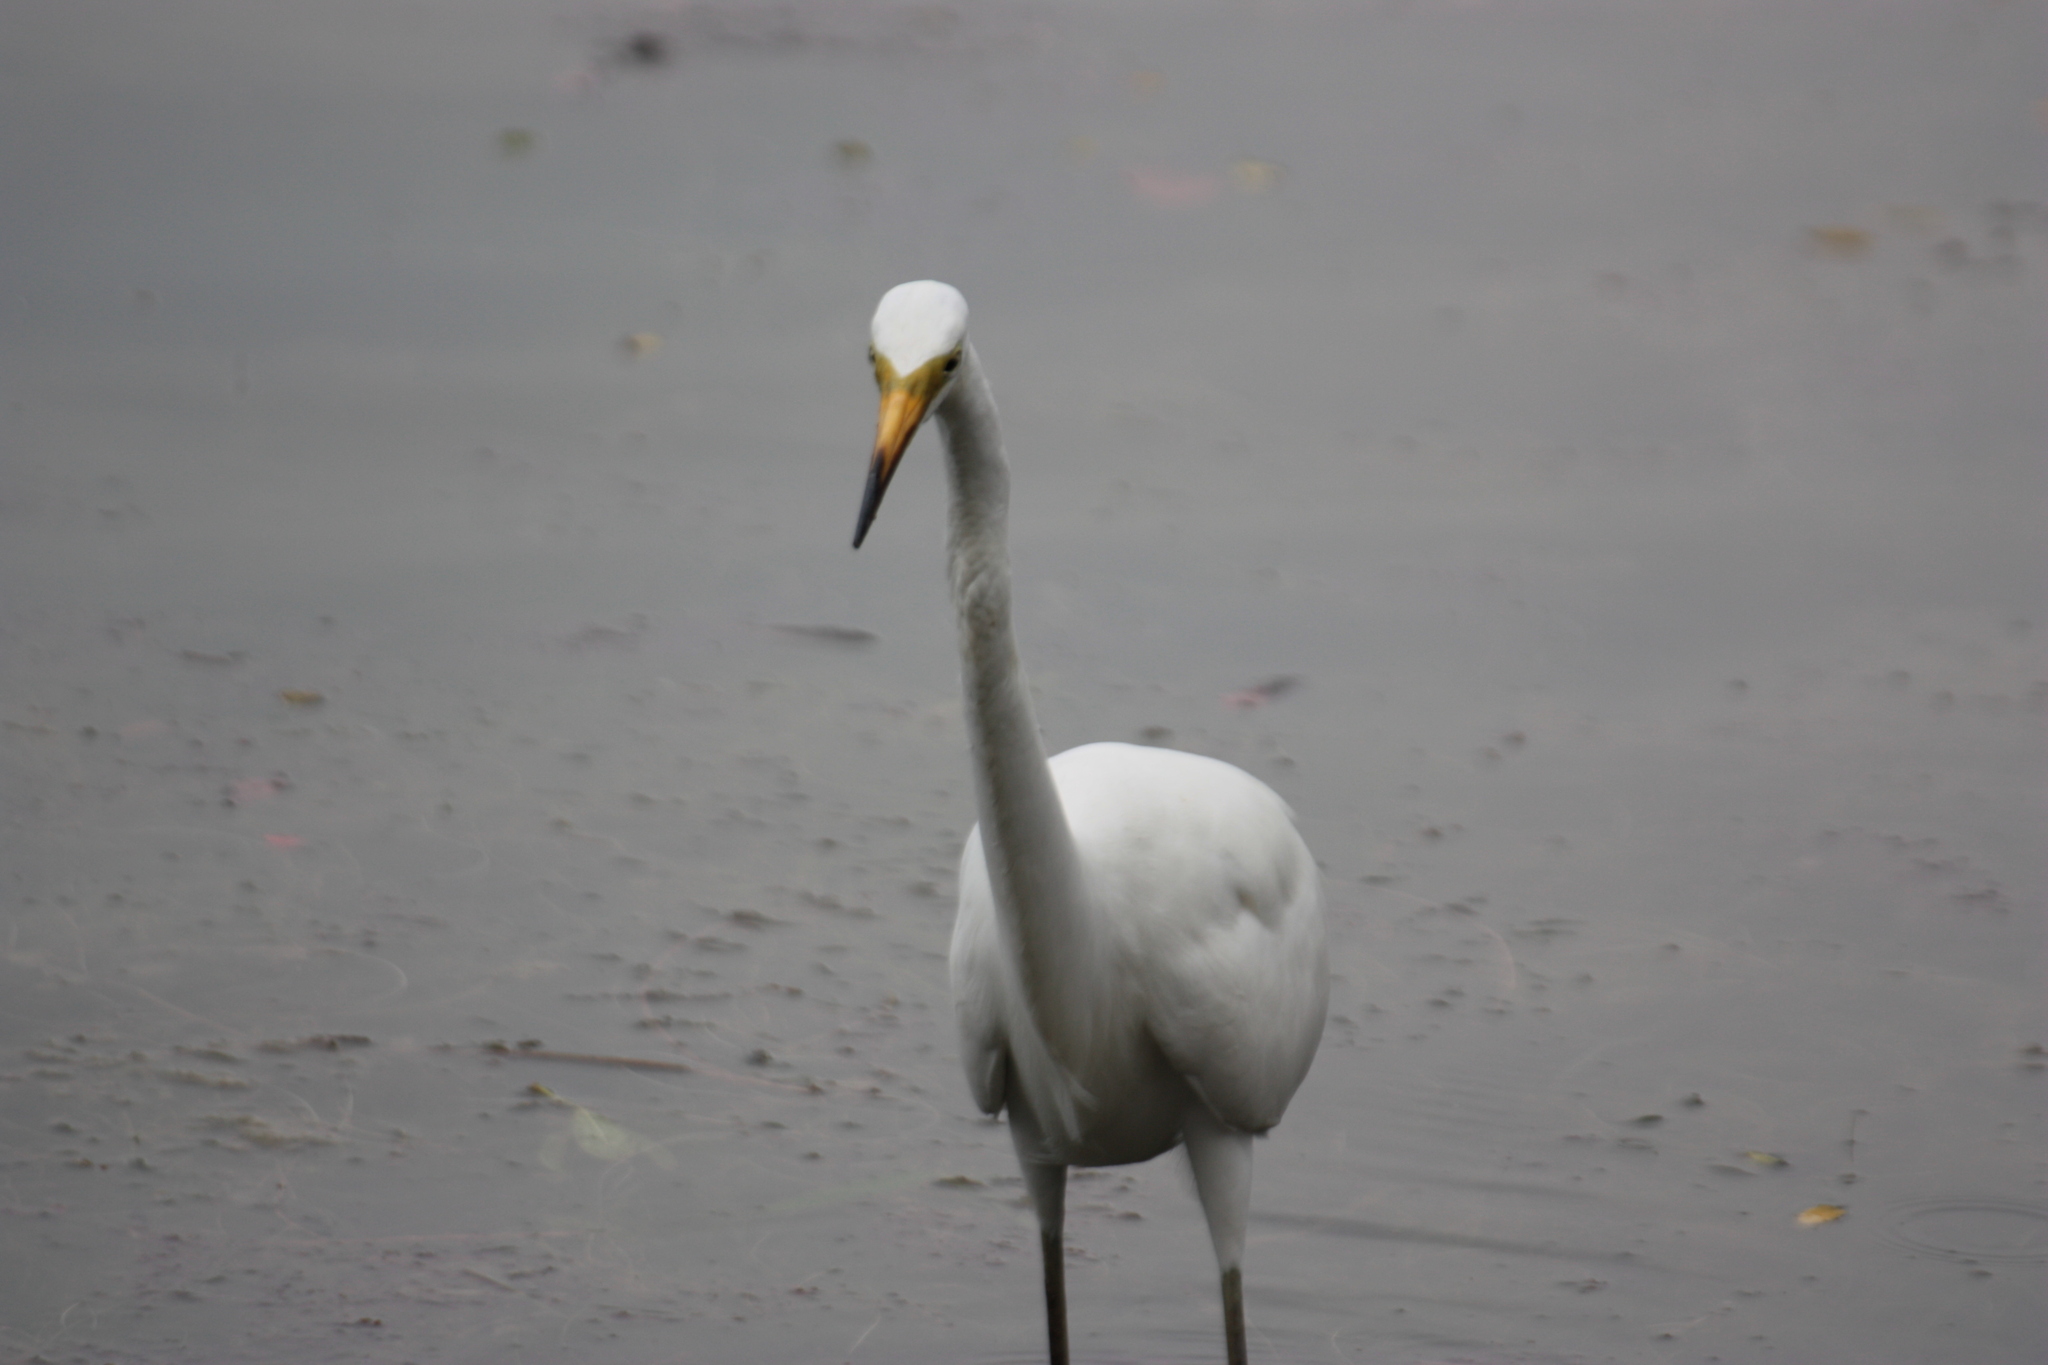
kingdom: Animalia
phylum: Chordata
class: Aves
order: Pelecaniformes
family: Ardeidae
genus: Ardea
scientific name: Ardea alba
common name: Great egret
